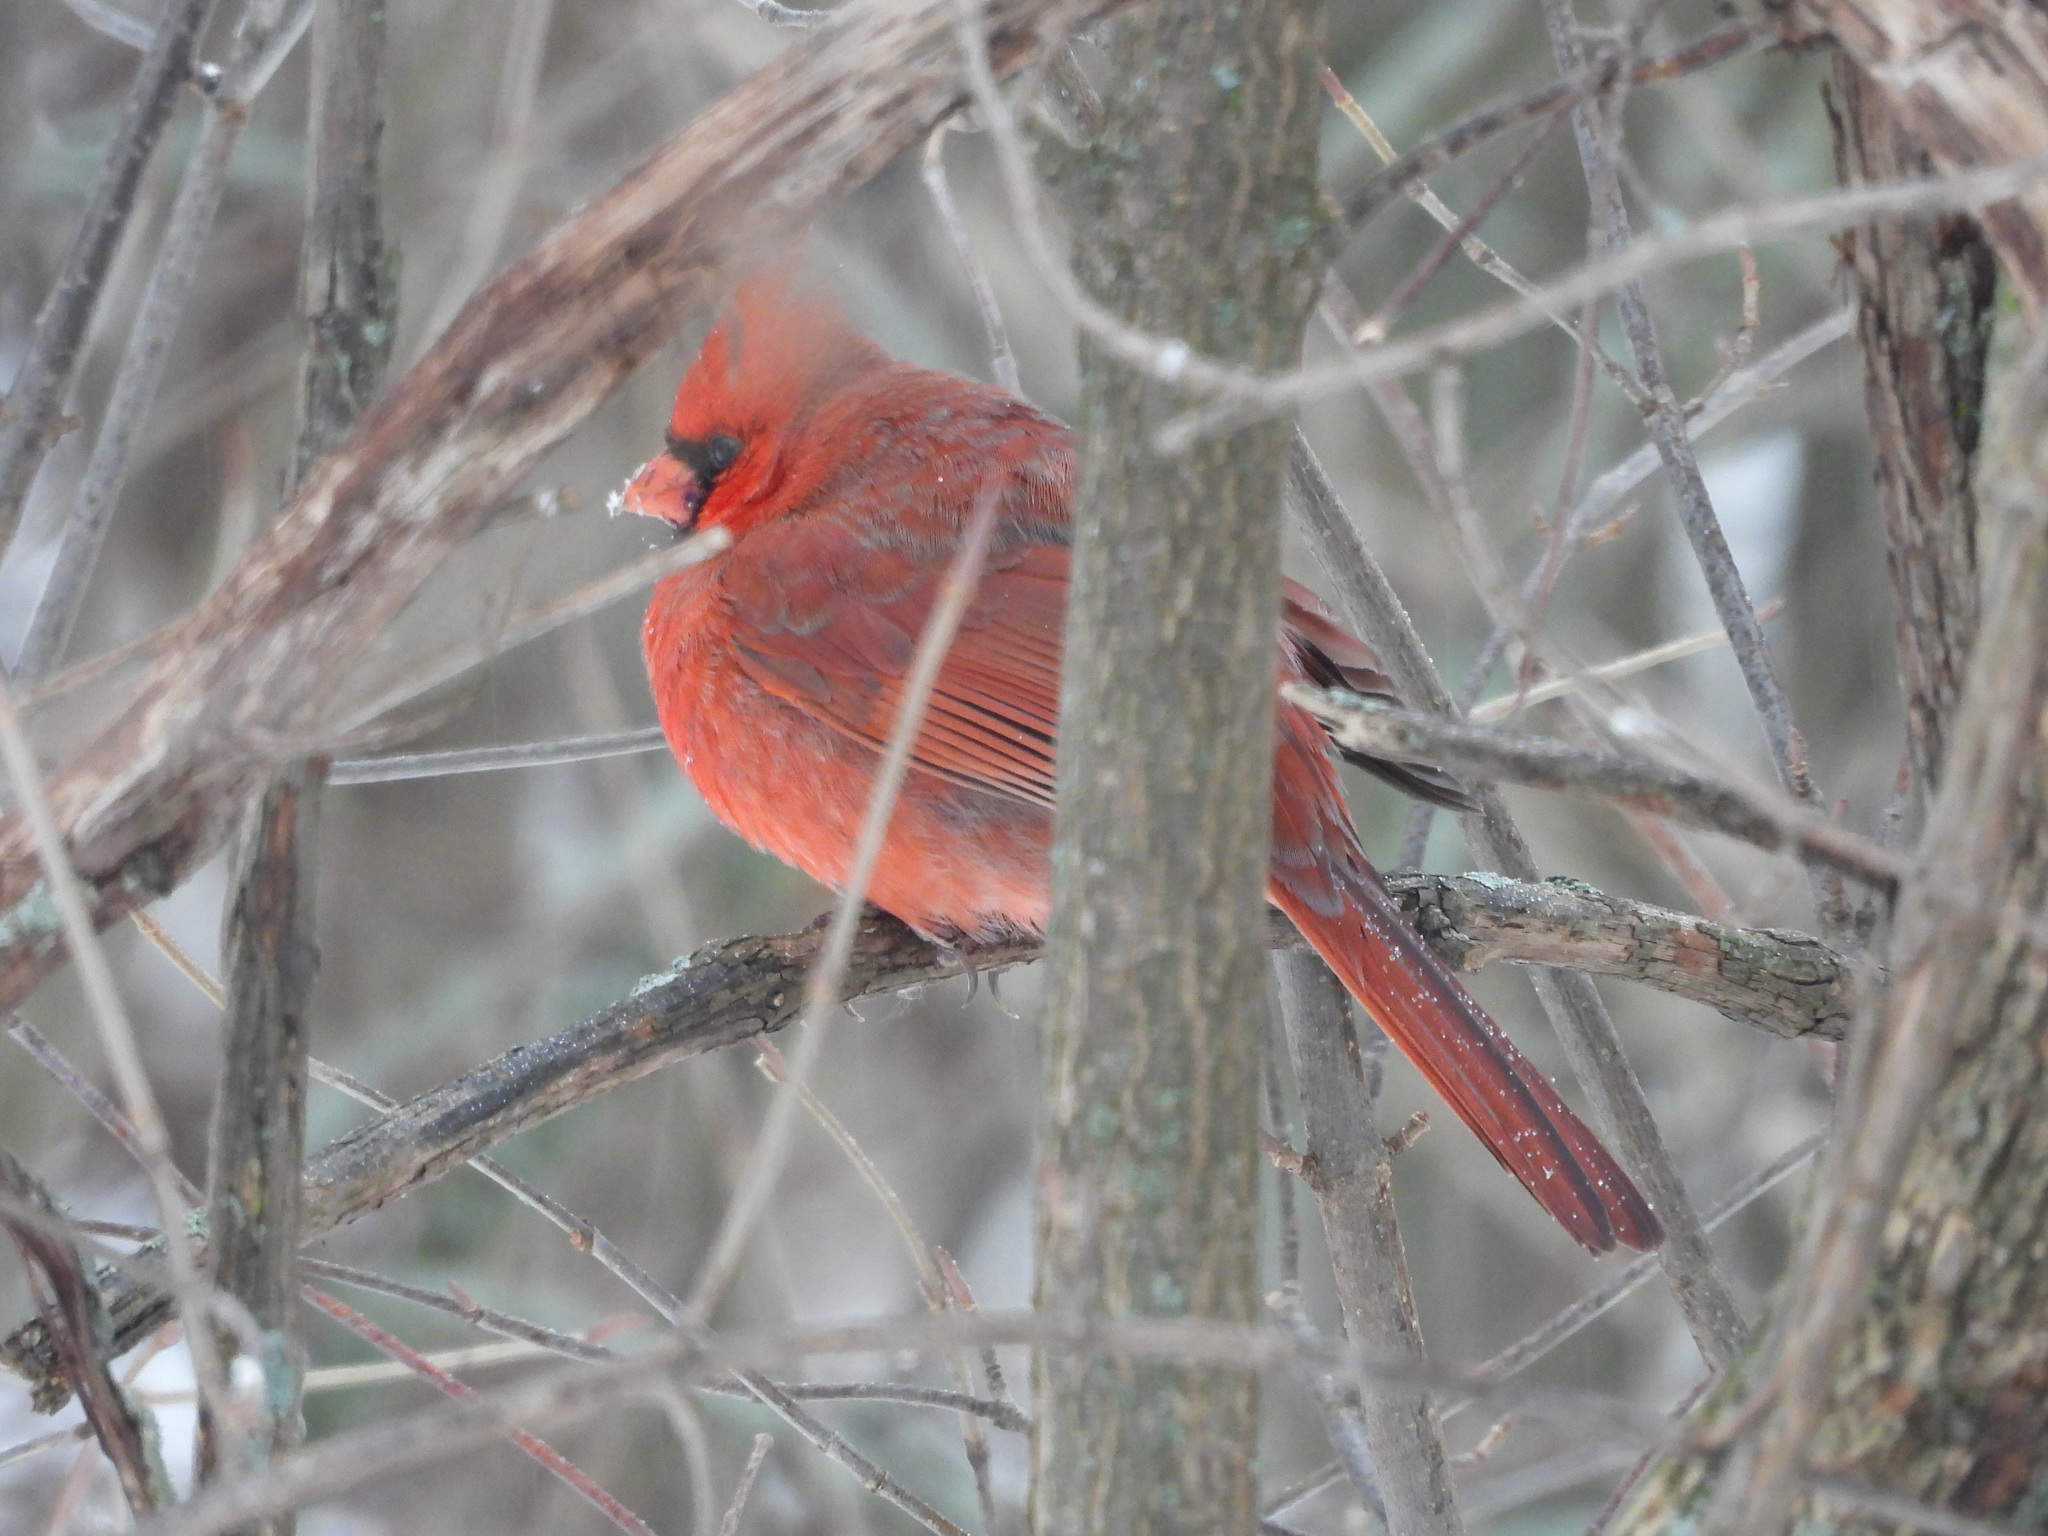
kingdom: Animalia
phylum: Chordata
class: Aves
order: Passeriformes
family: Cardinalidae
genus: Cardinalis
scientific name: Cardinalis cardinalis
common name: Northern cardinal
